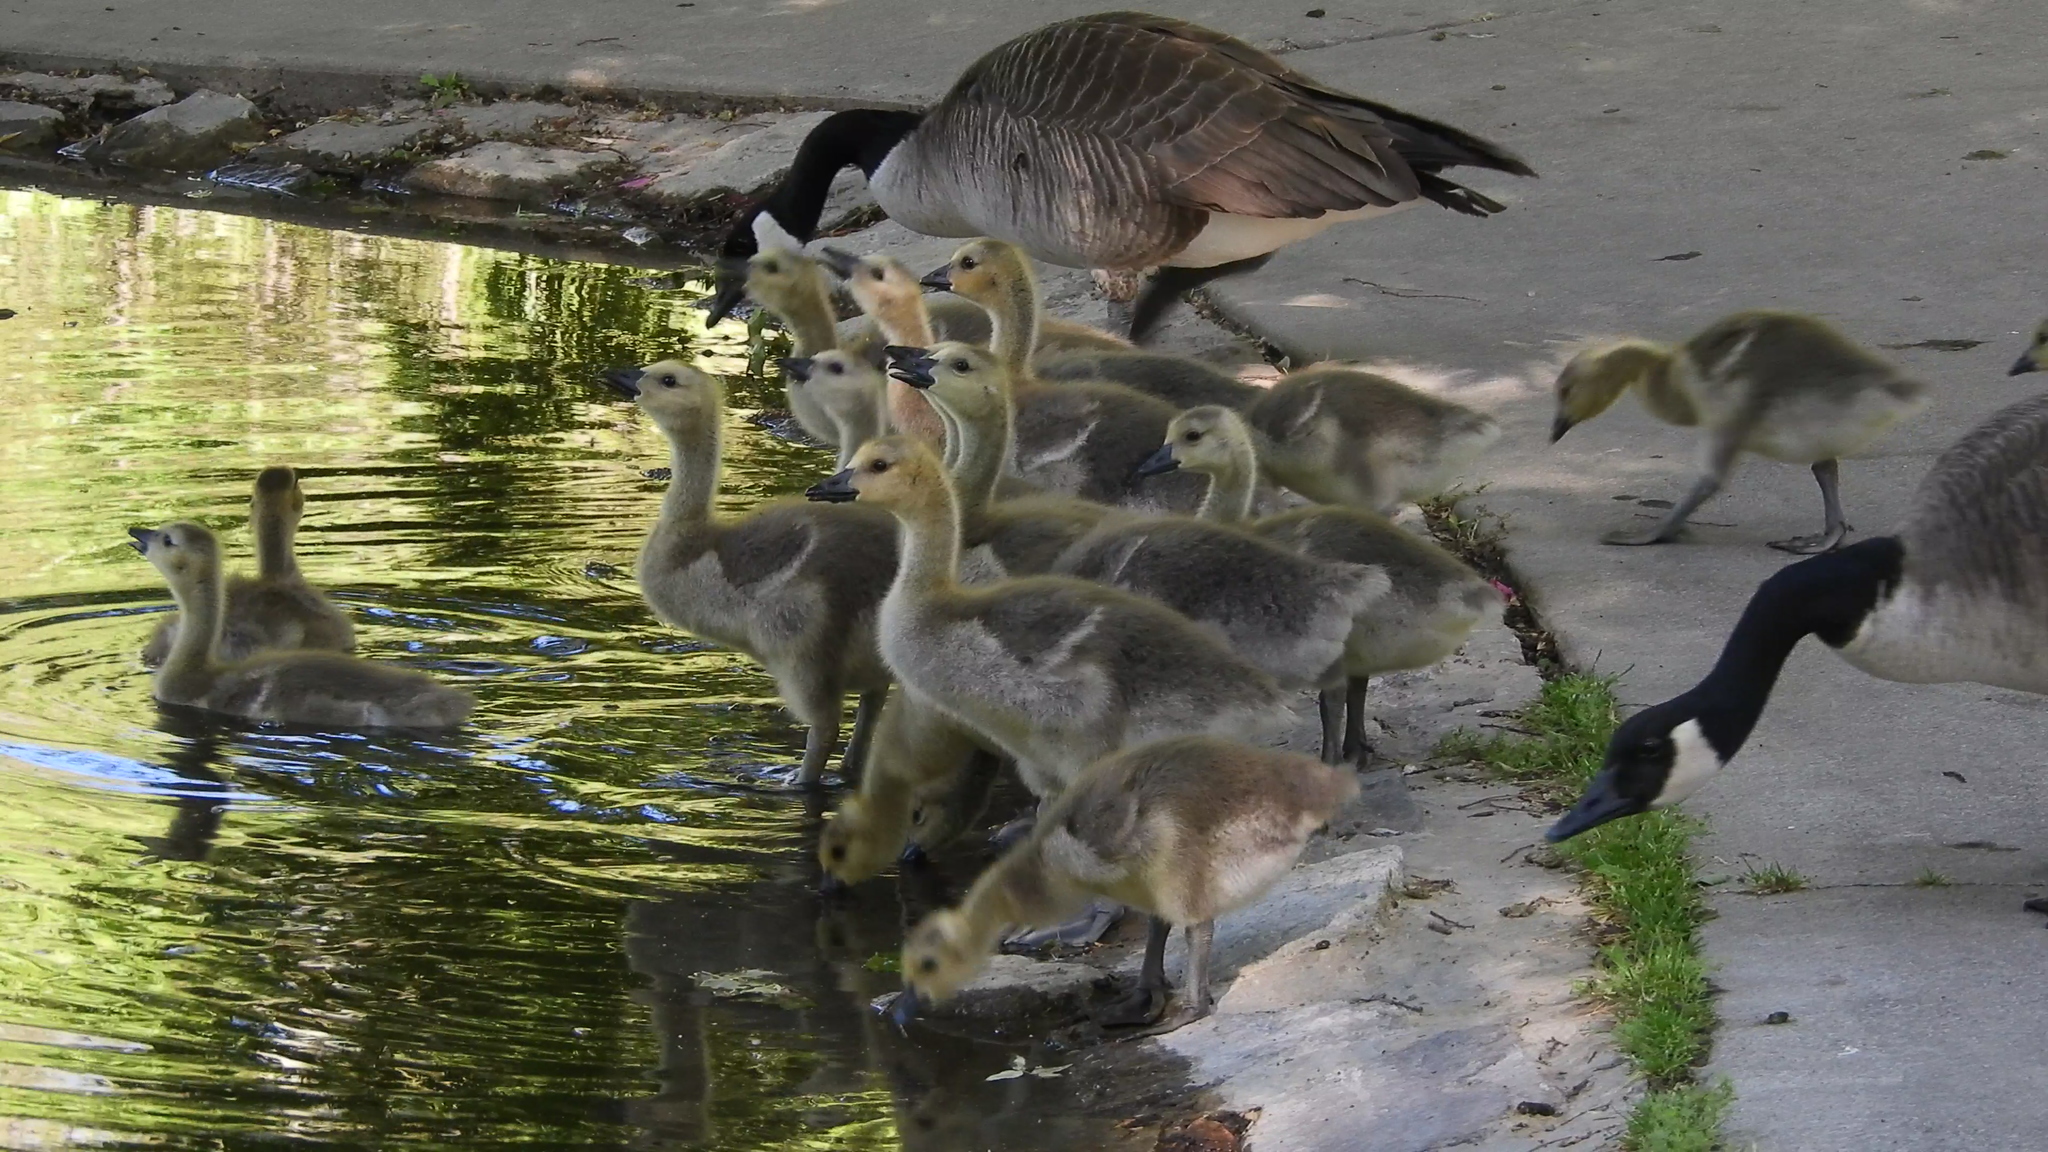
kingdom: Animalia
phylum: Chordata
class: Aves
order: Anseriformes
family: Anatidae
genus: Branta
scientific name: Branta canadensis
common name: Canada goose
